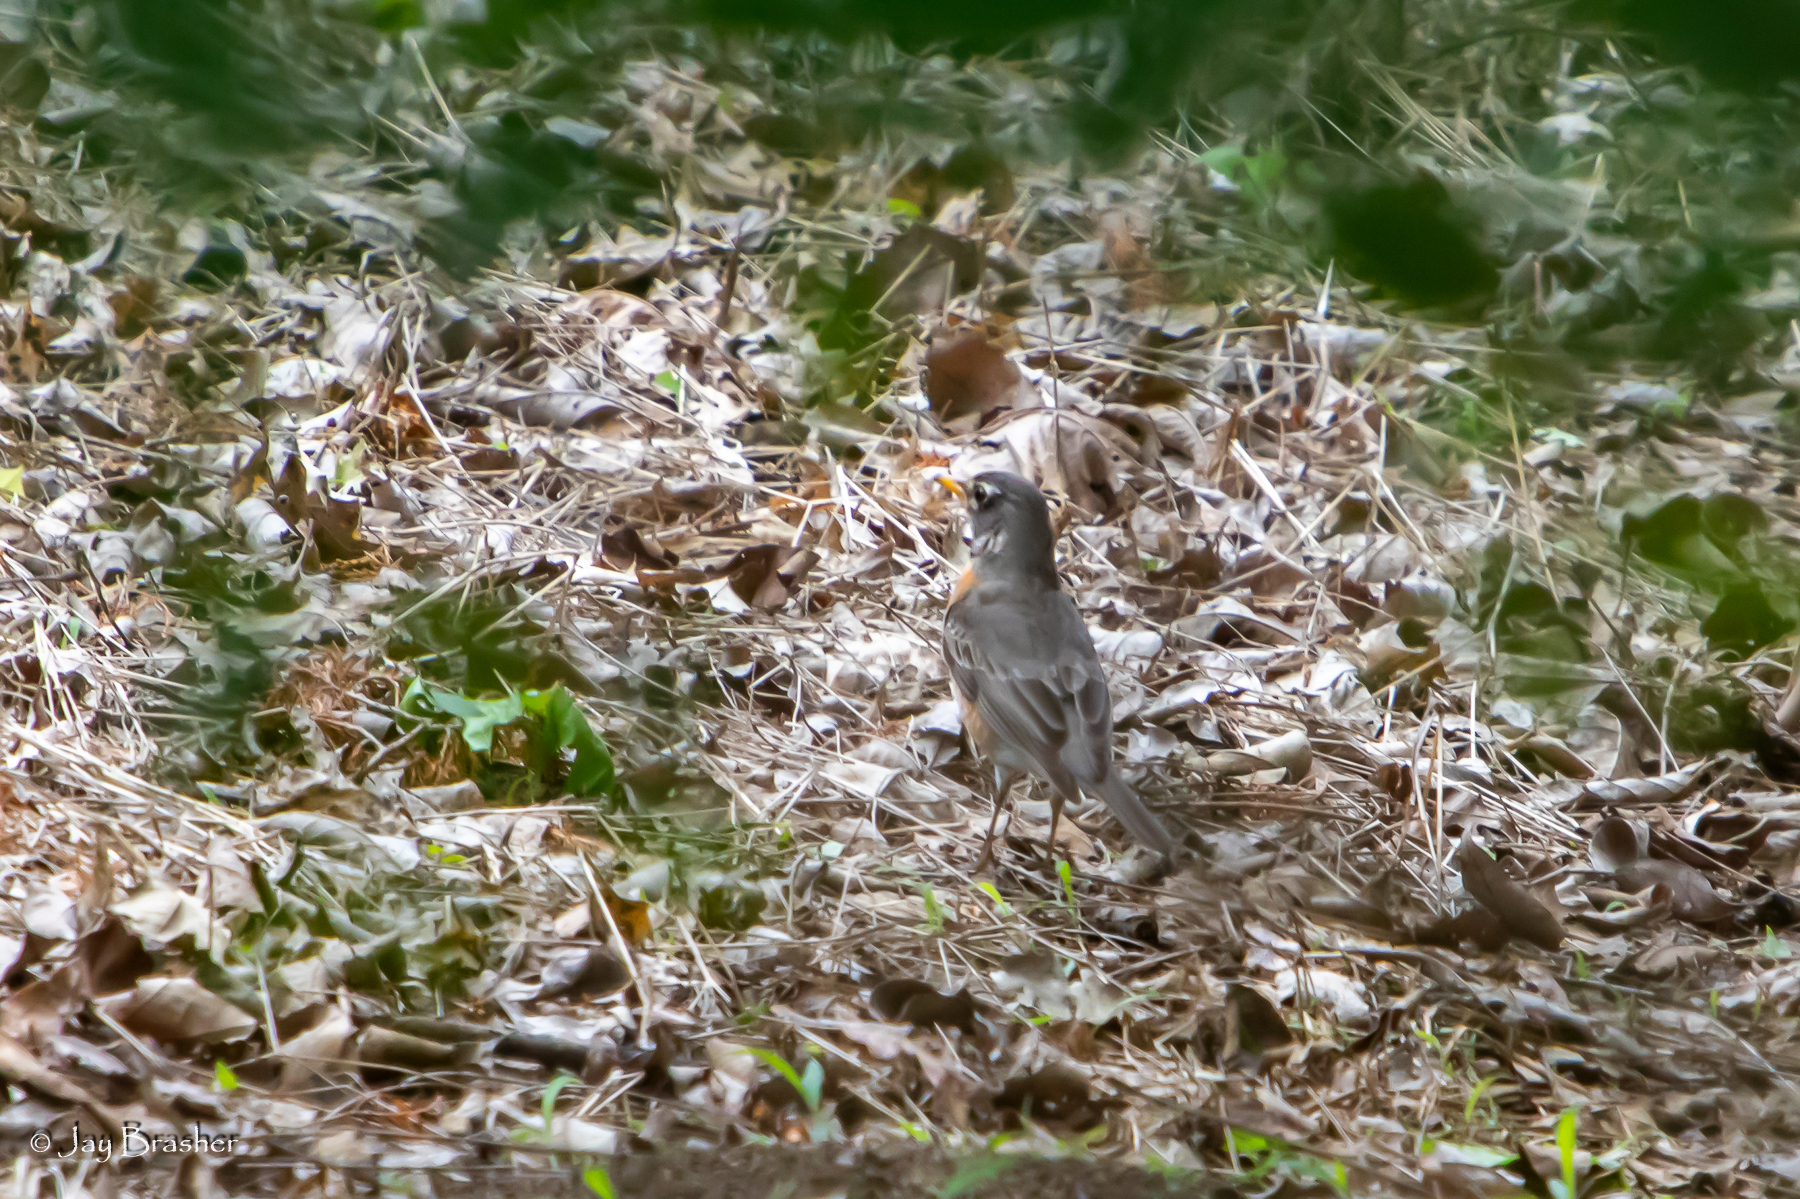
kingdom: Animalia
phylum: Chordata
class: Aves
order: Passeriformes
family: Turdidae
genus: Turdus
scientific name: Turdus migratorius
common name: American robin
